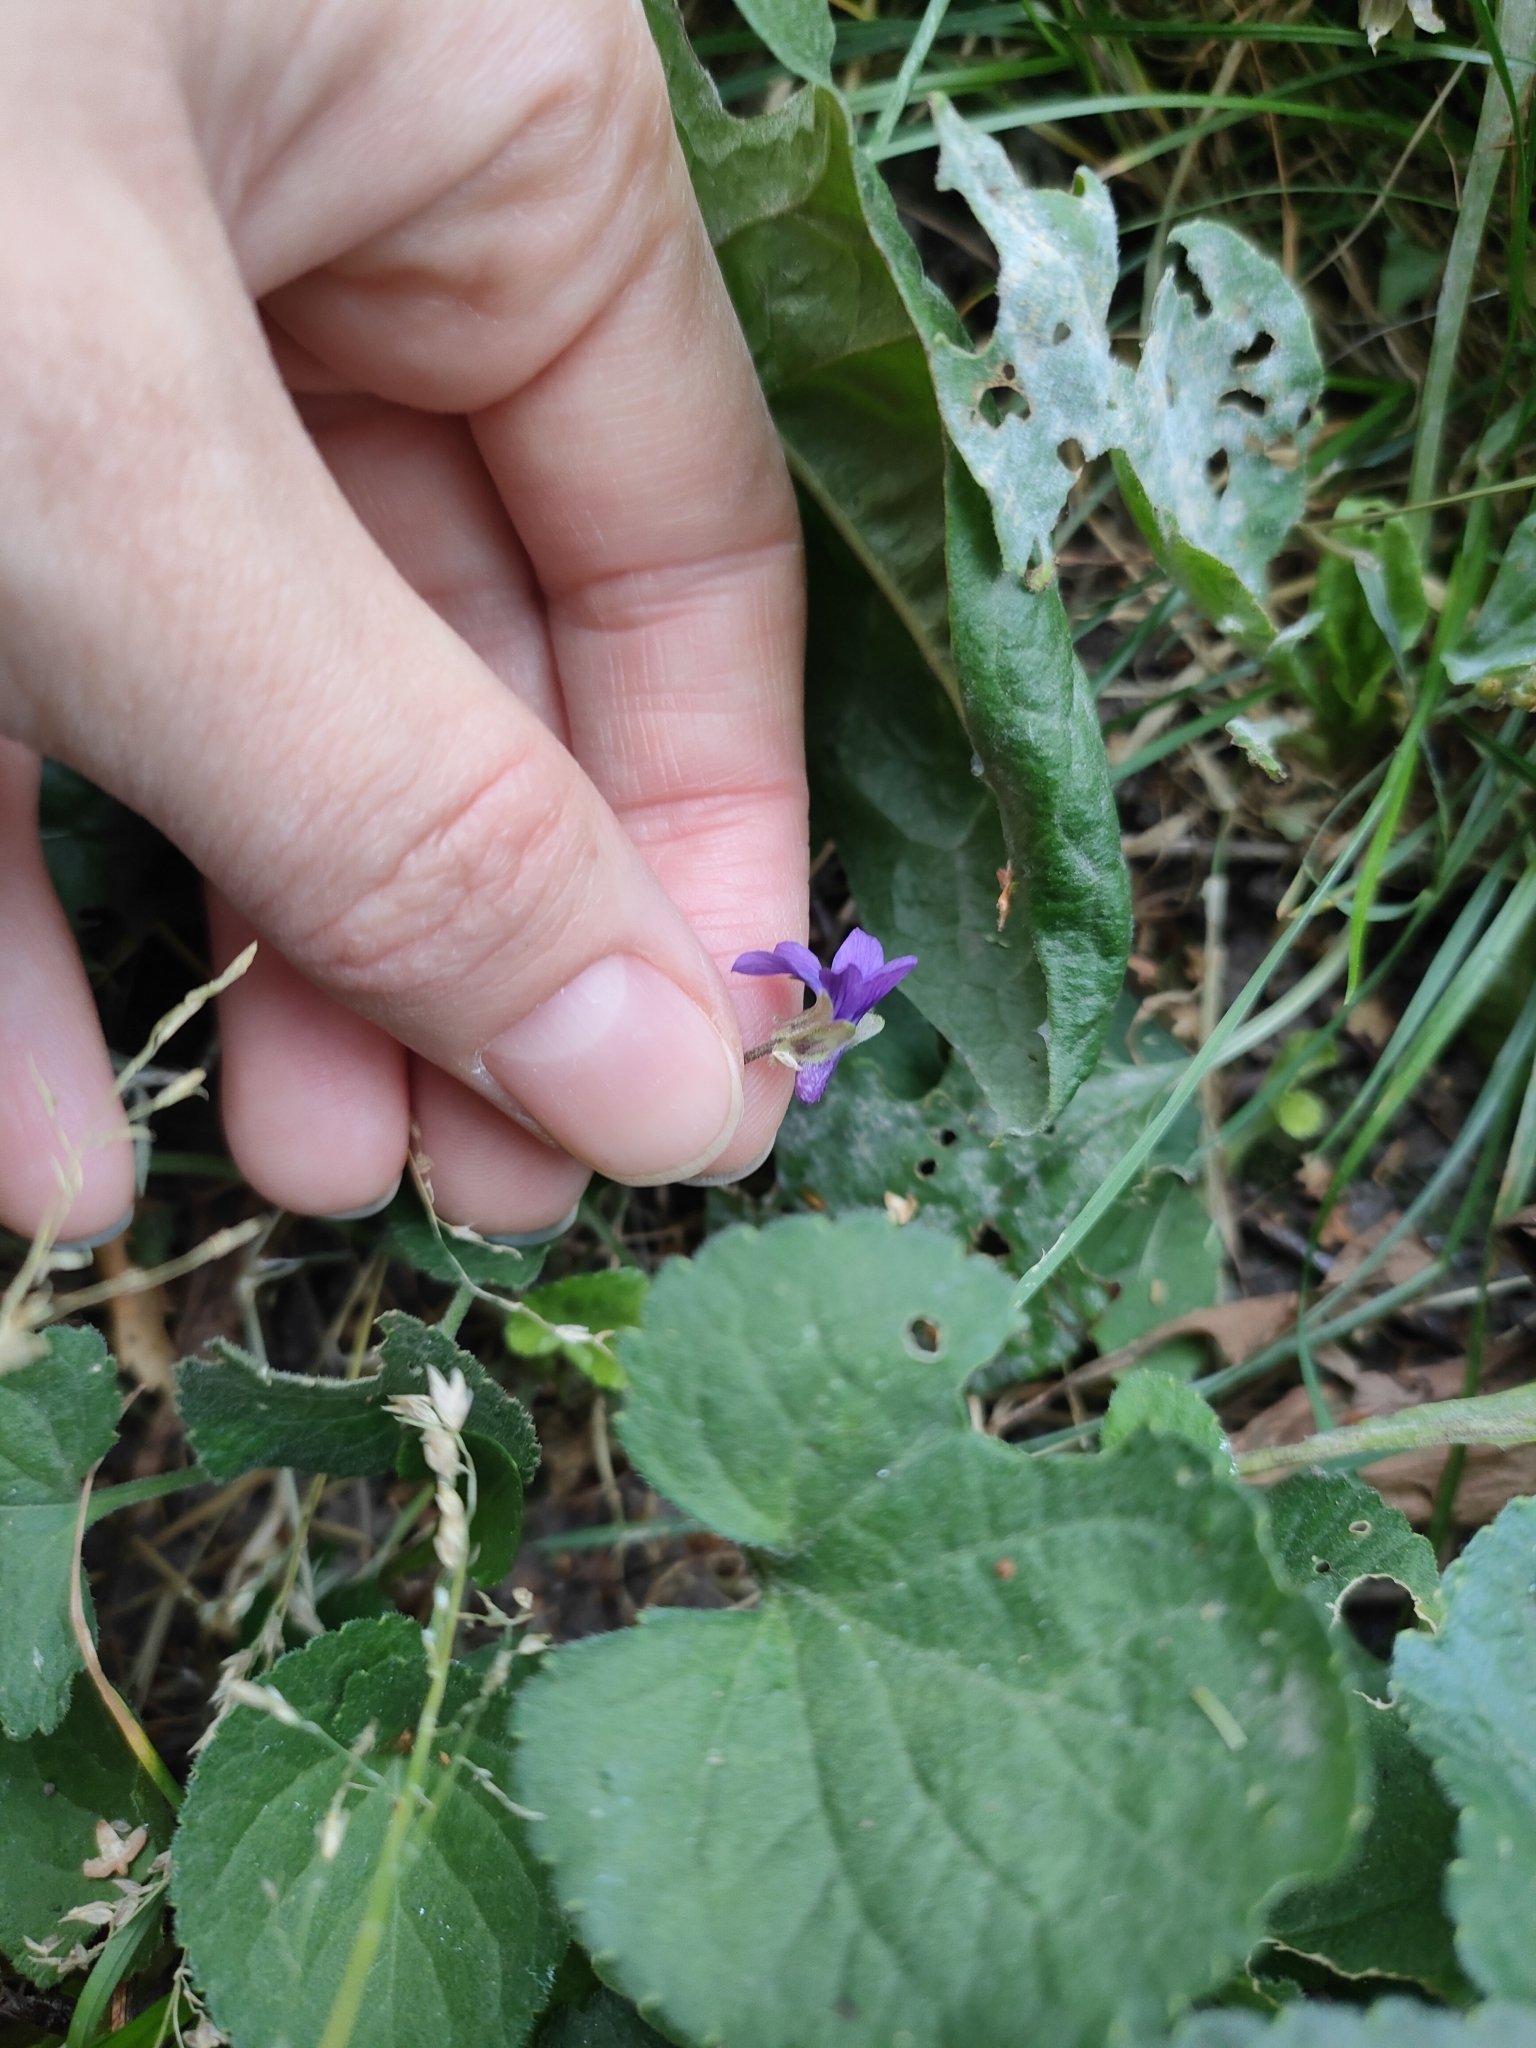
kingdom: Plantae
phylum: Tracheophyta
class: Magnoliopsida
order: Malpighiales
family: Violaceae
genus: Viola
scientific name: Viola odorata
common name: Sweet violet
